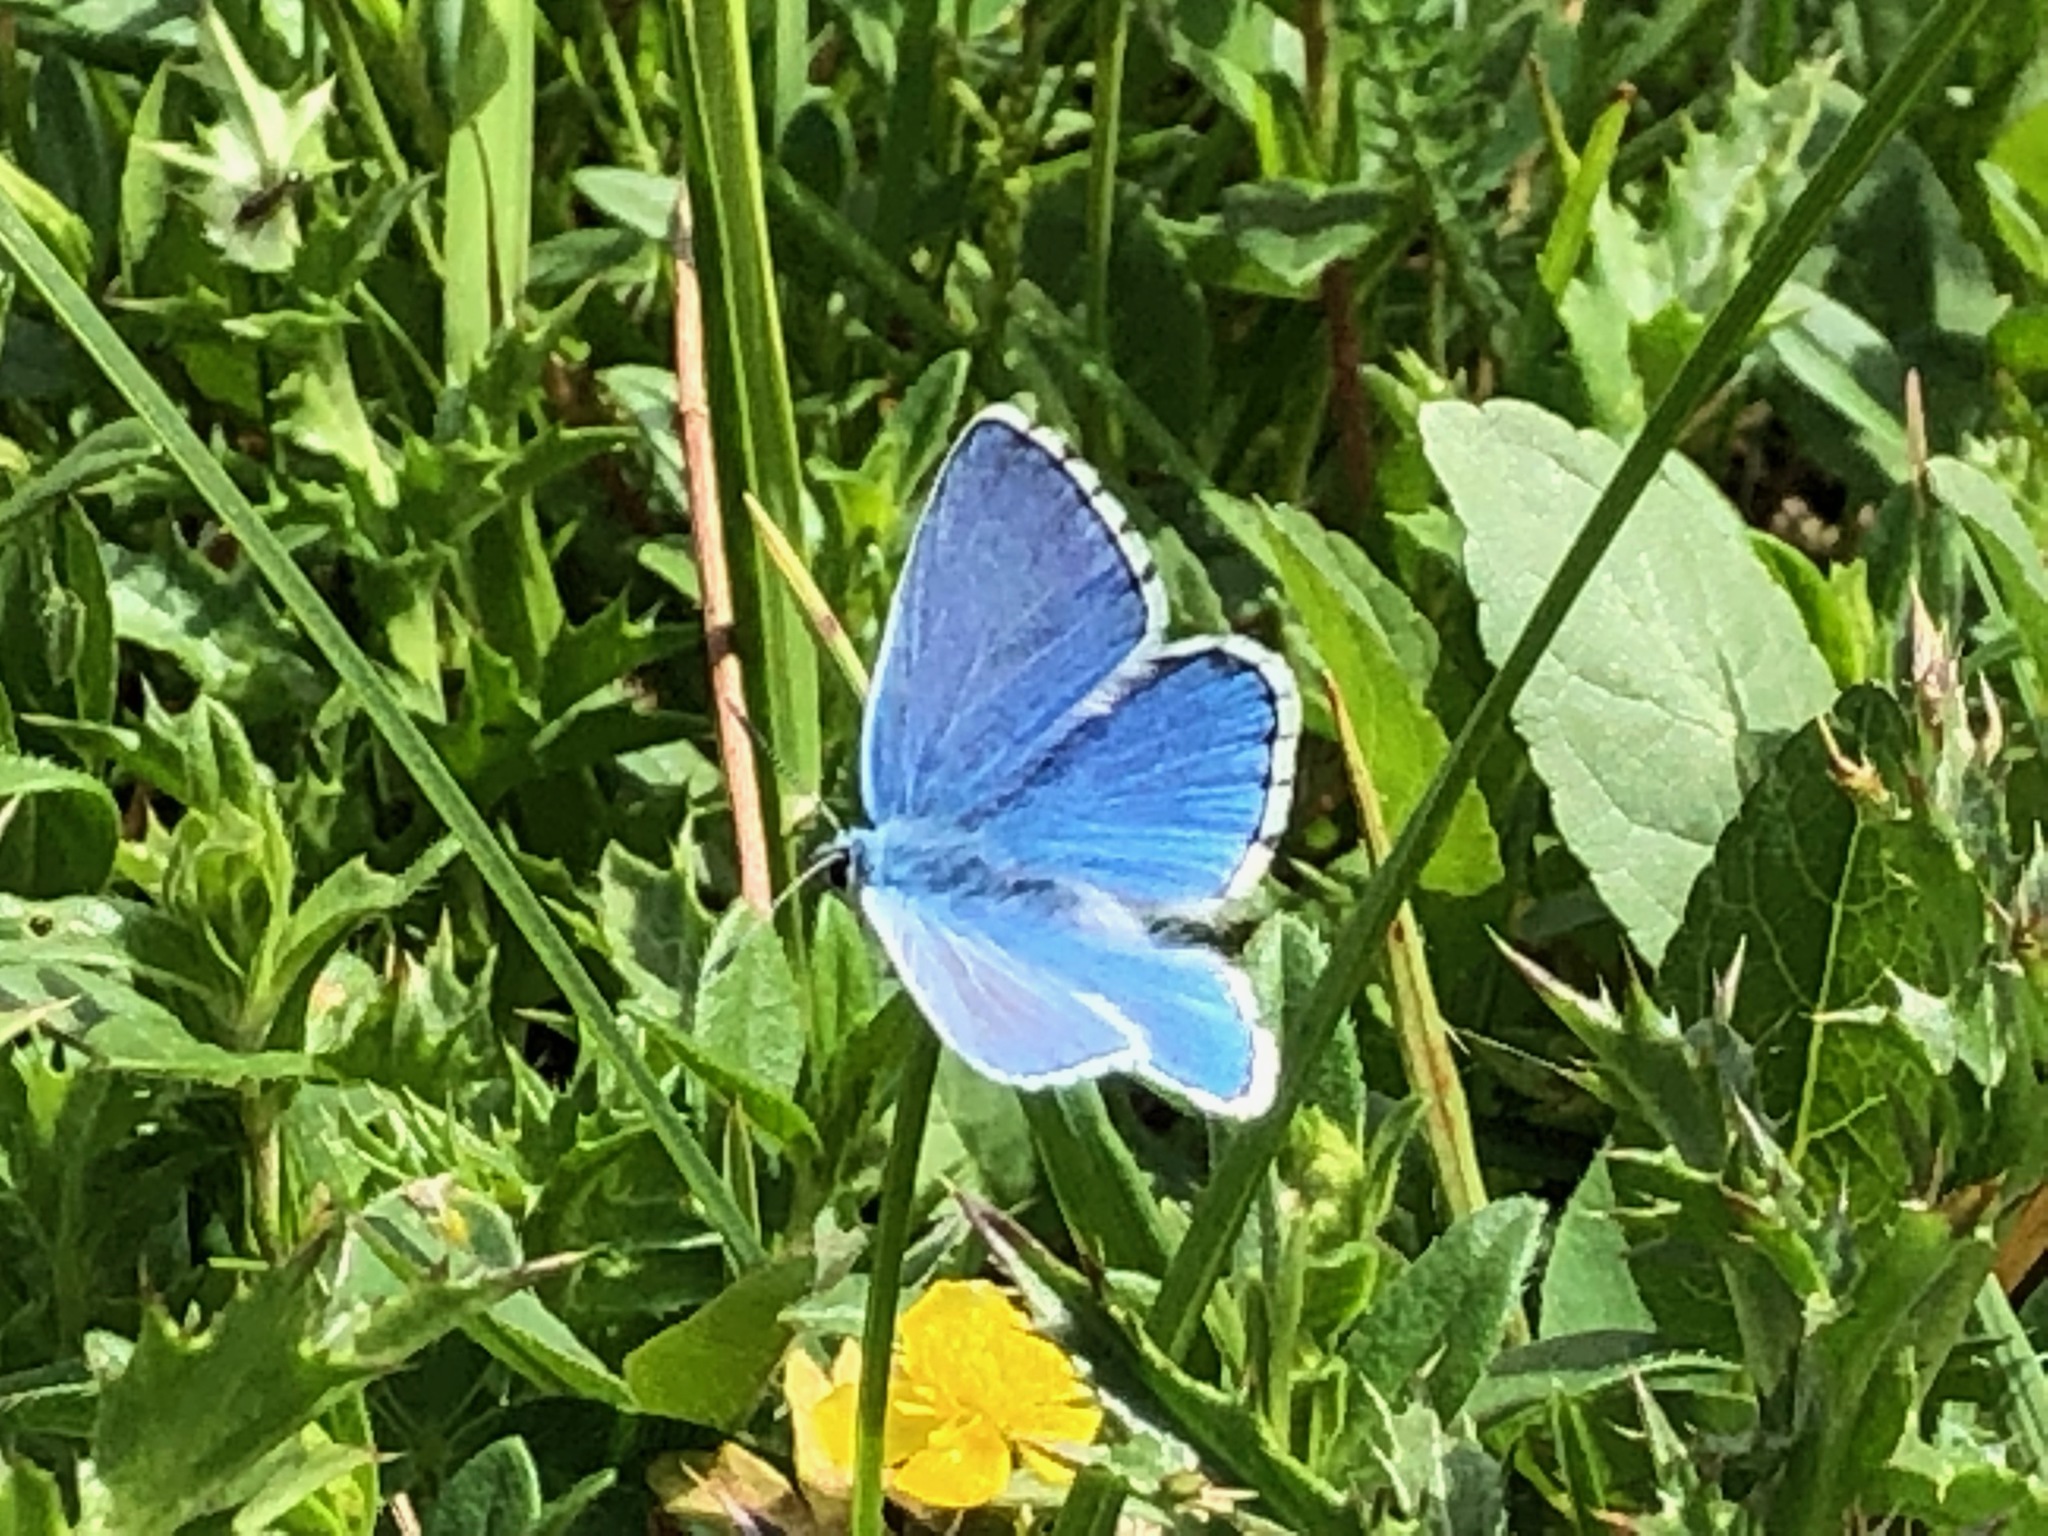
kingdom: Animalia
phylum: Arthropoda
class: Insecta
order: Lepidoptera
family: Lycaenidae
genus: Lysandra
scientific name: Lysandra bellargus
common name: Adonis blue
